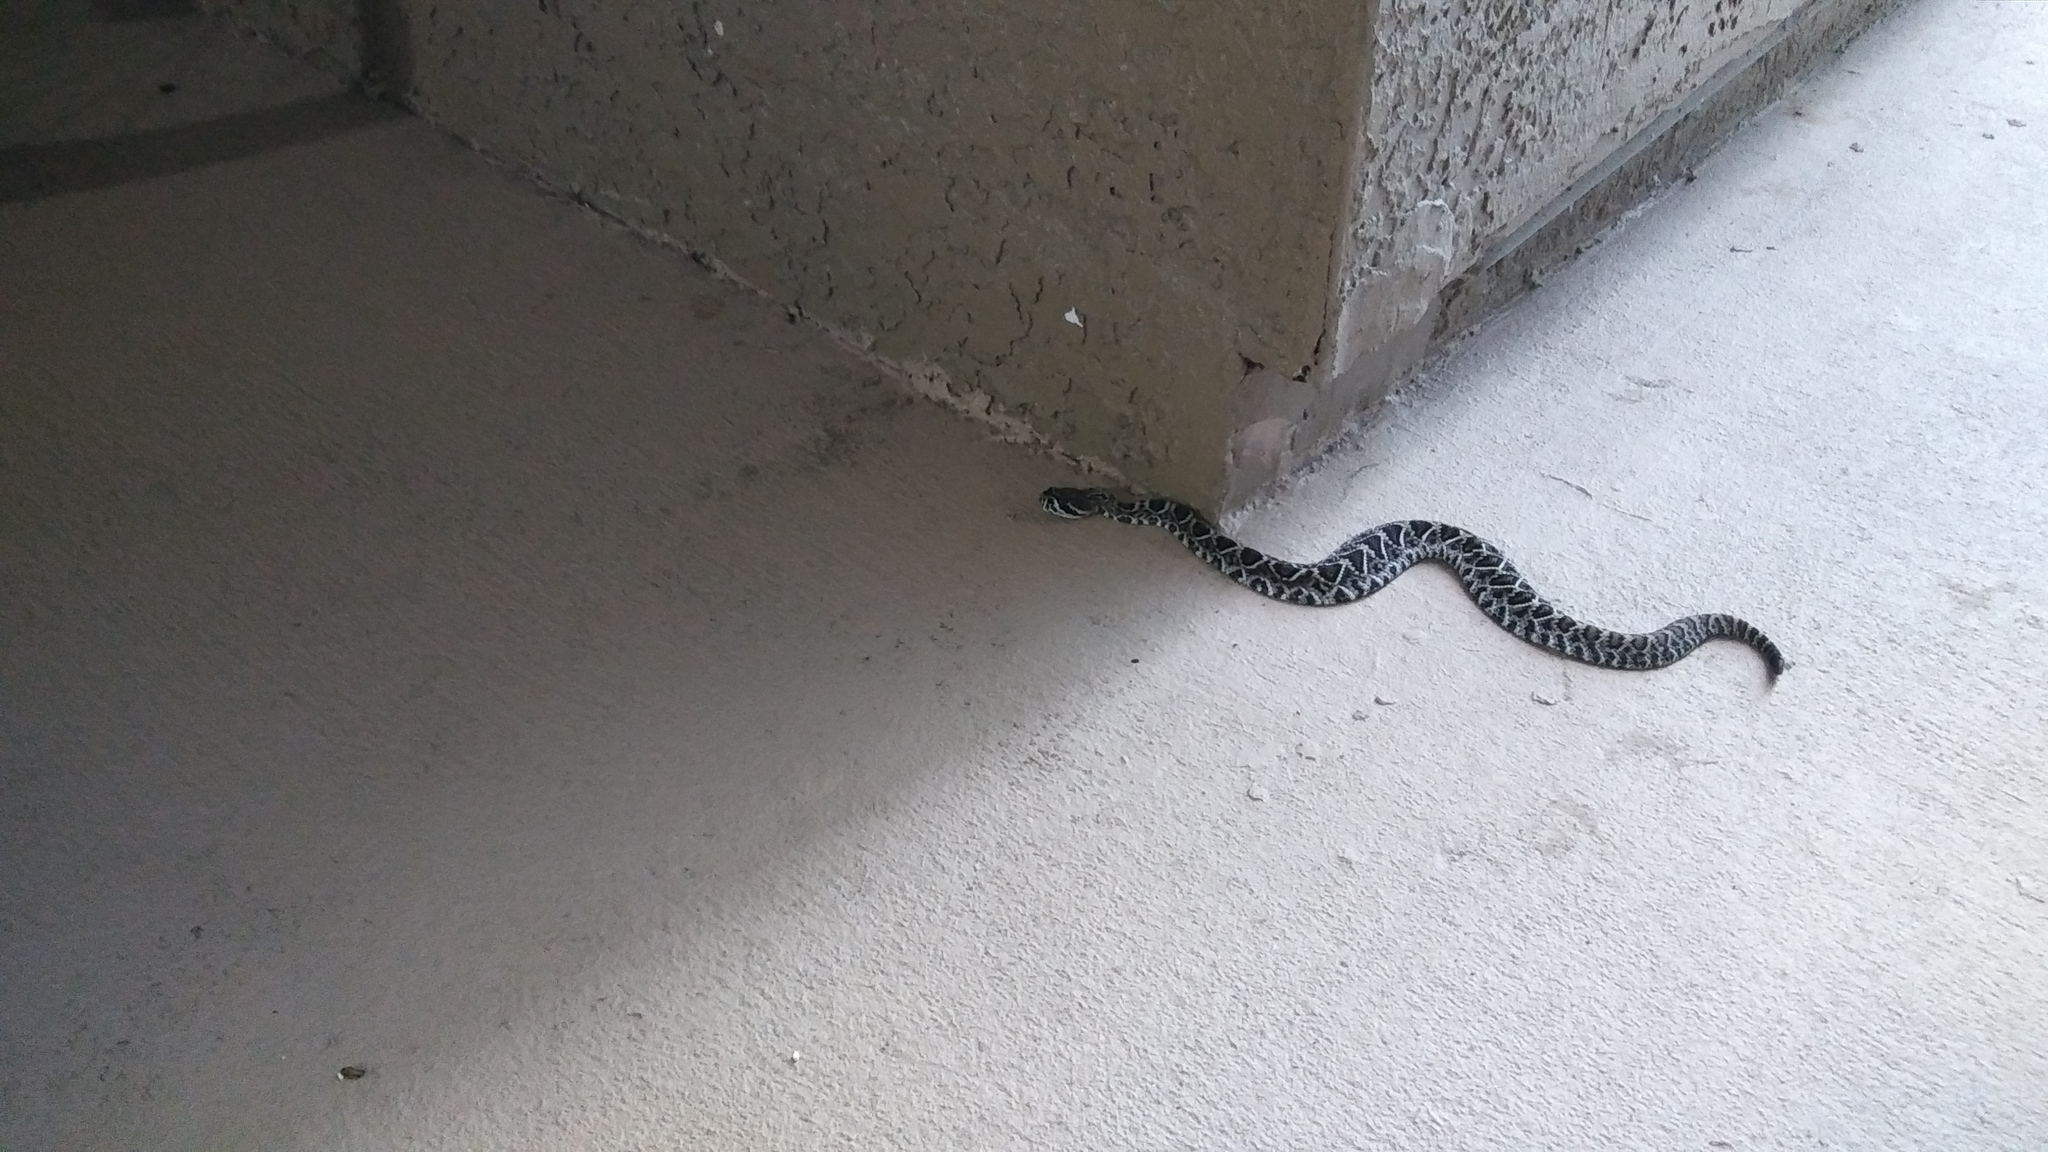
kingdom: Animalia
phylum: Chordata
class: Squamata
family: Viperidae
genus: Crotalus
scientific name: Crotalus adamanteus
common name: Eastern diamondback rattlesnake
